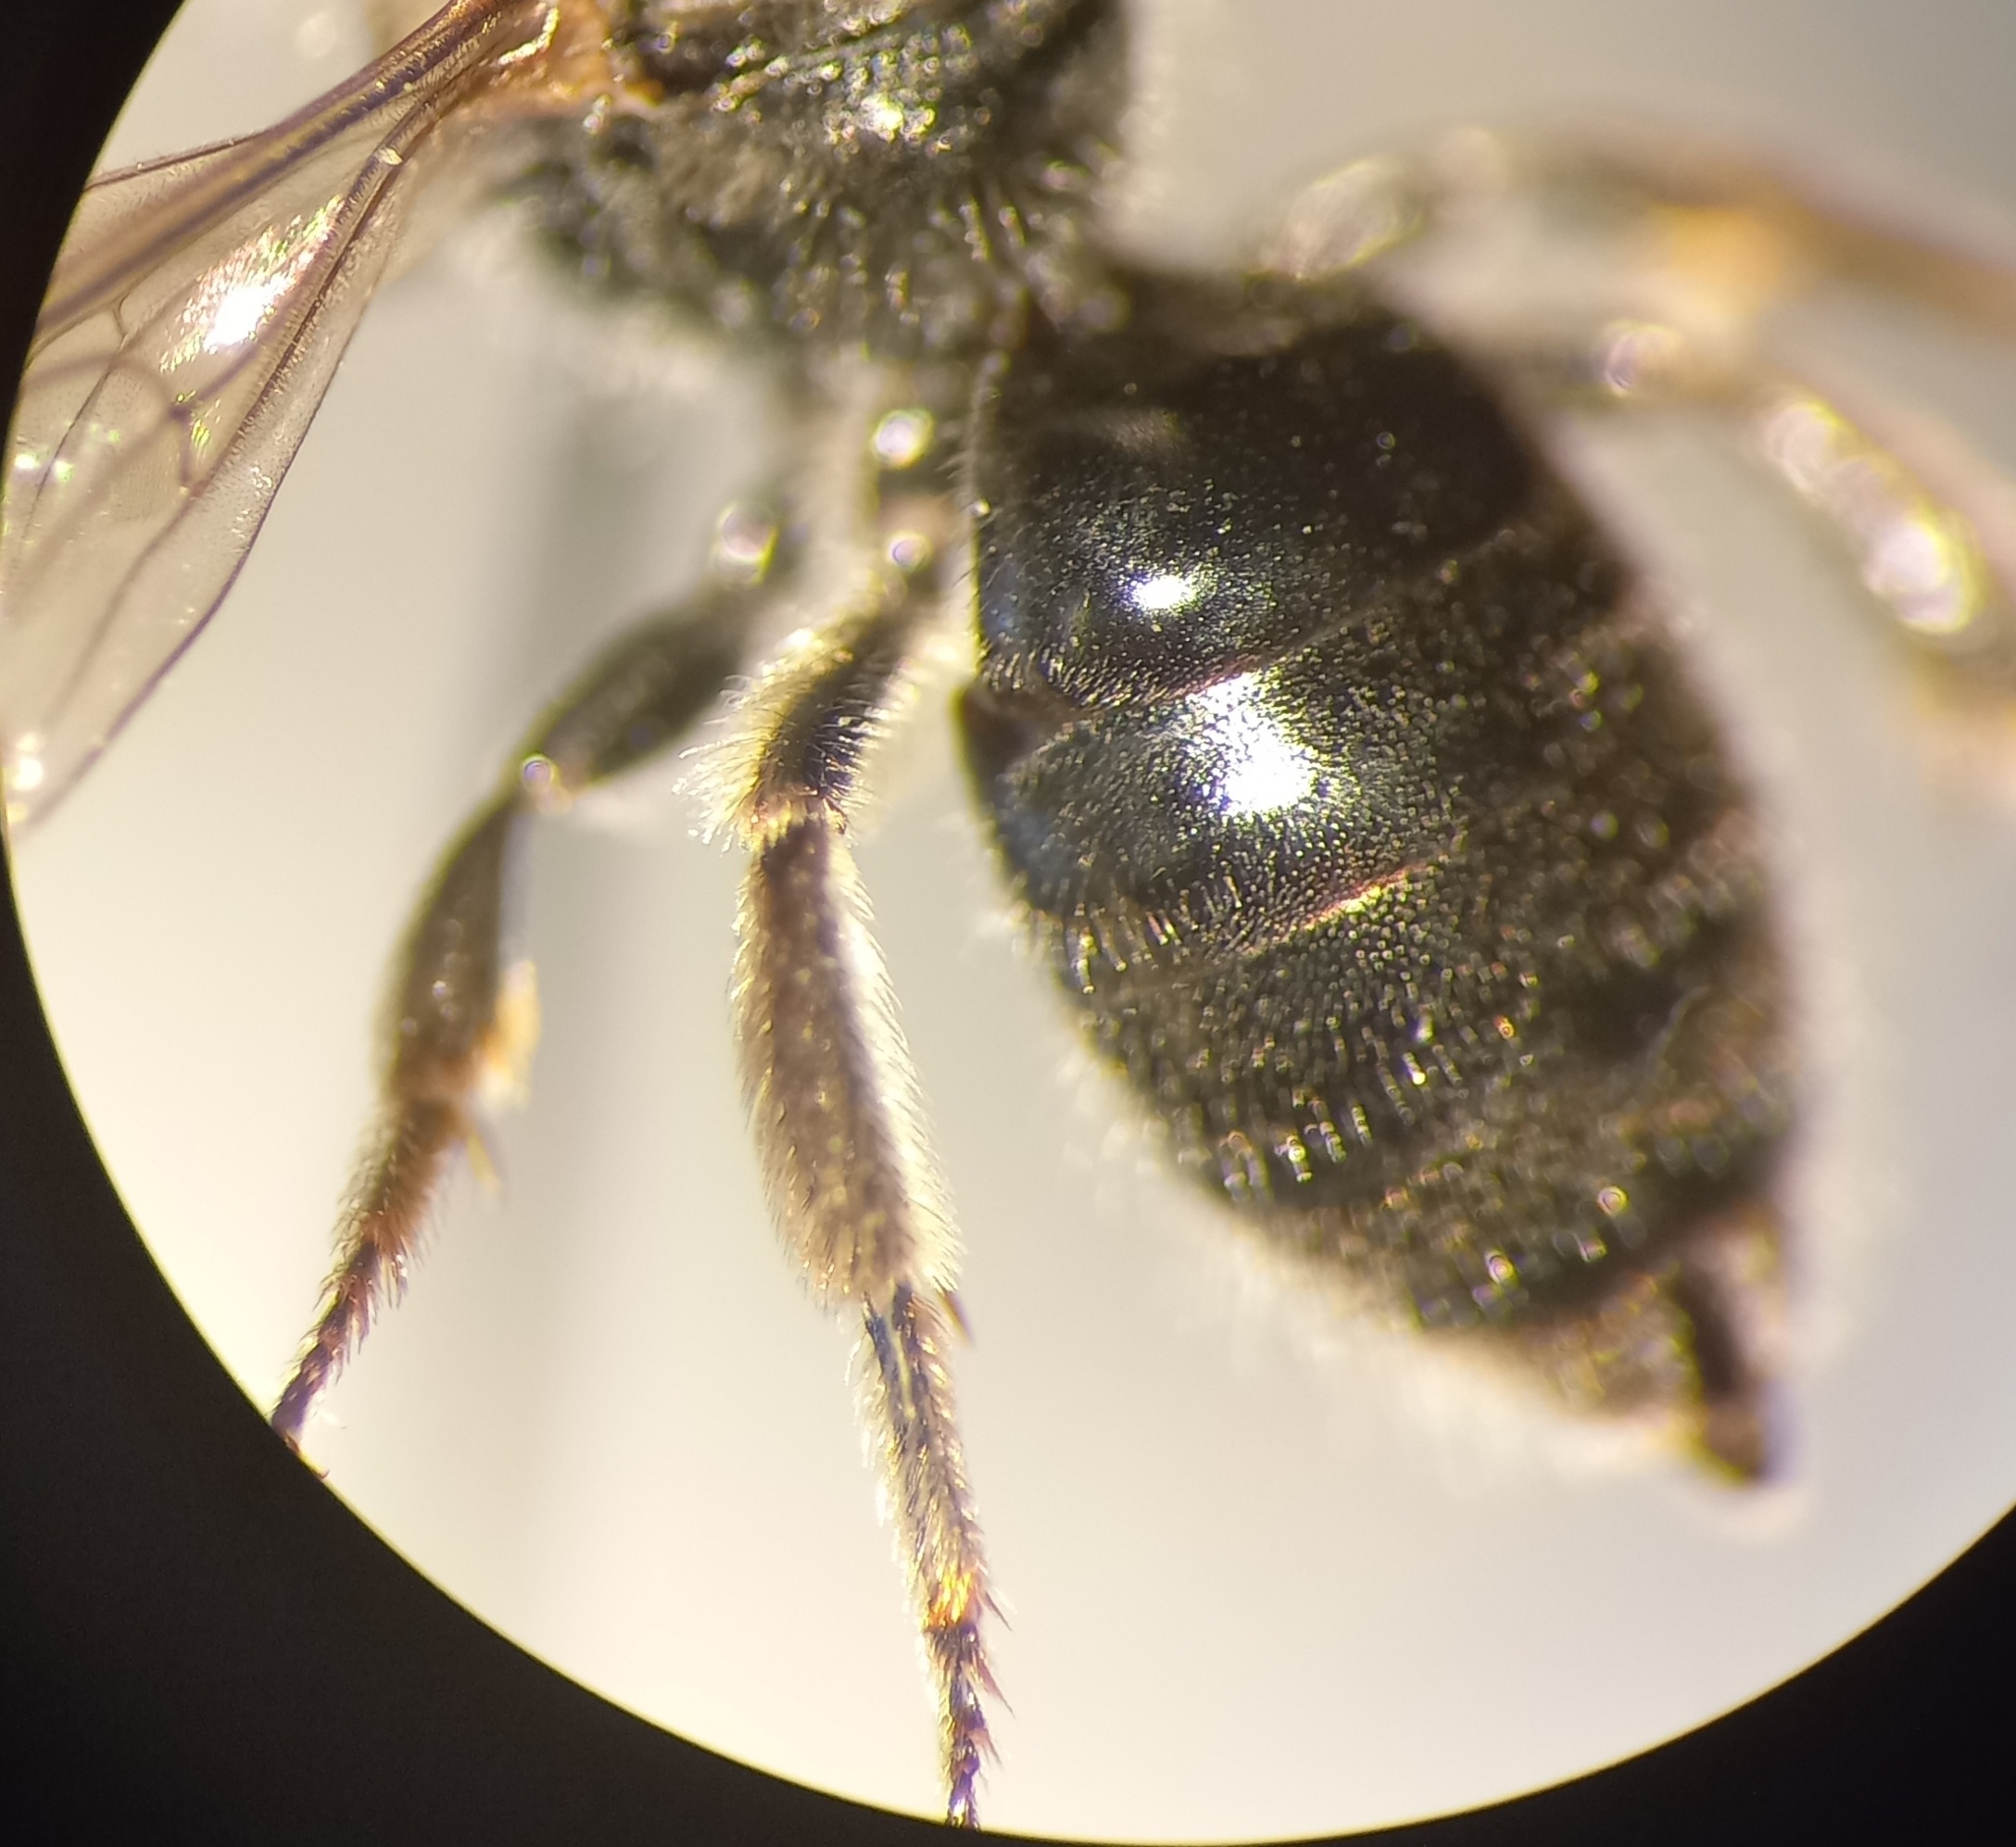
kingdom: Animalia
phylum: Arthropoda
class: Insecta
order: Hymenoptera
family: Halictidae
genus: Lasioglossum
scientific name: Lasioglossum clypeare
